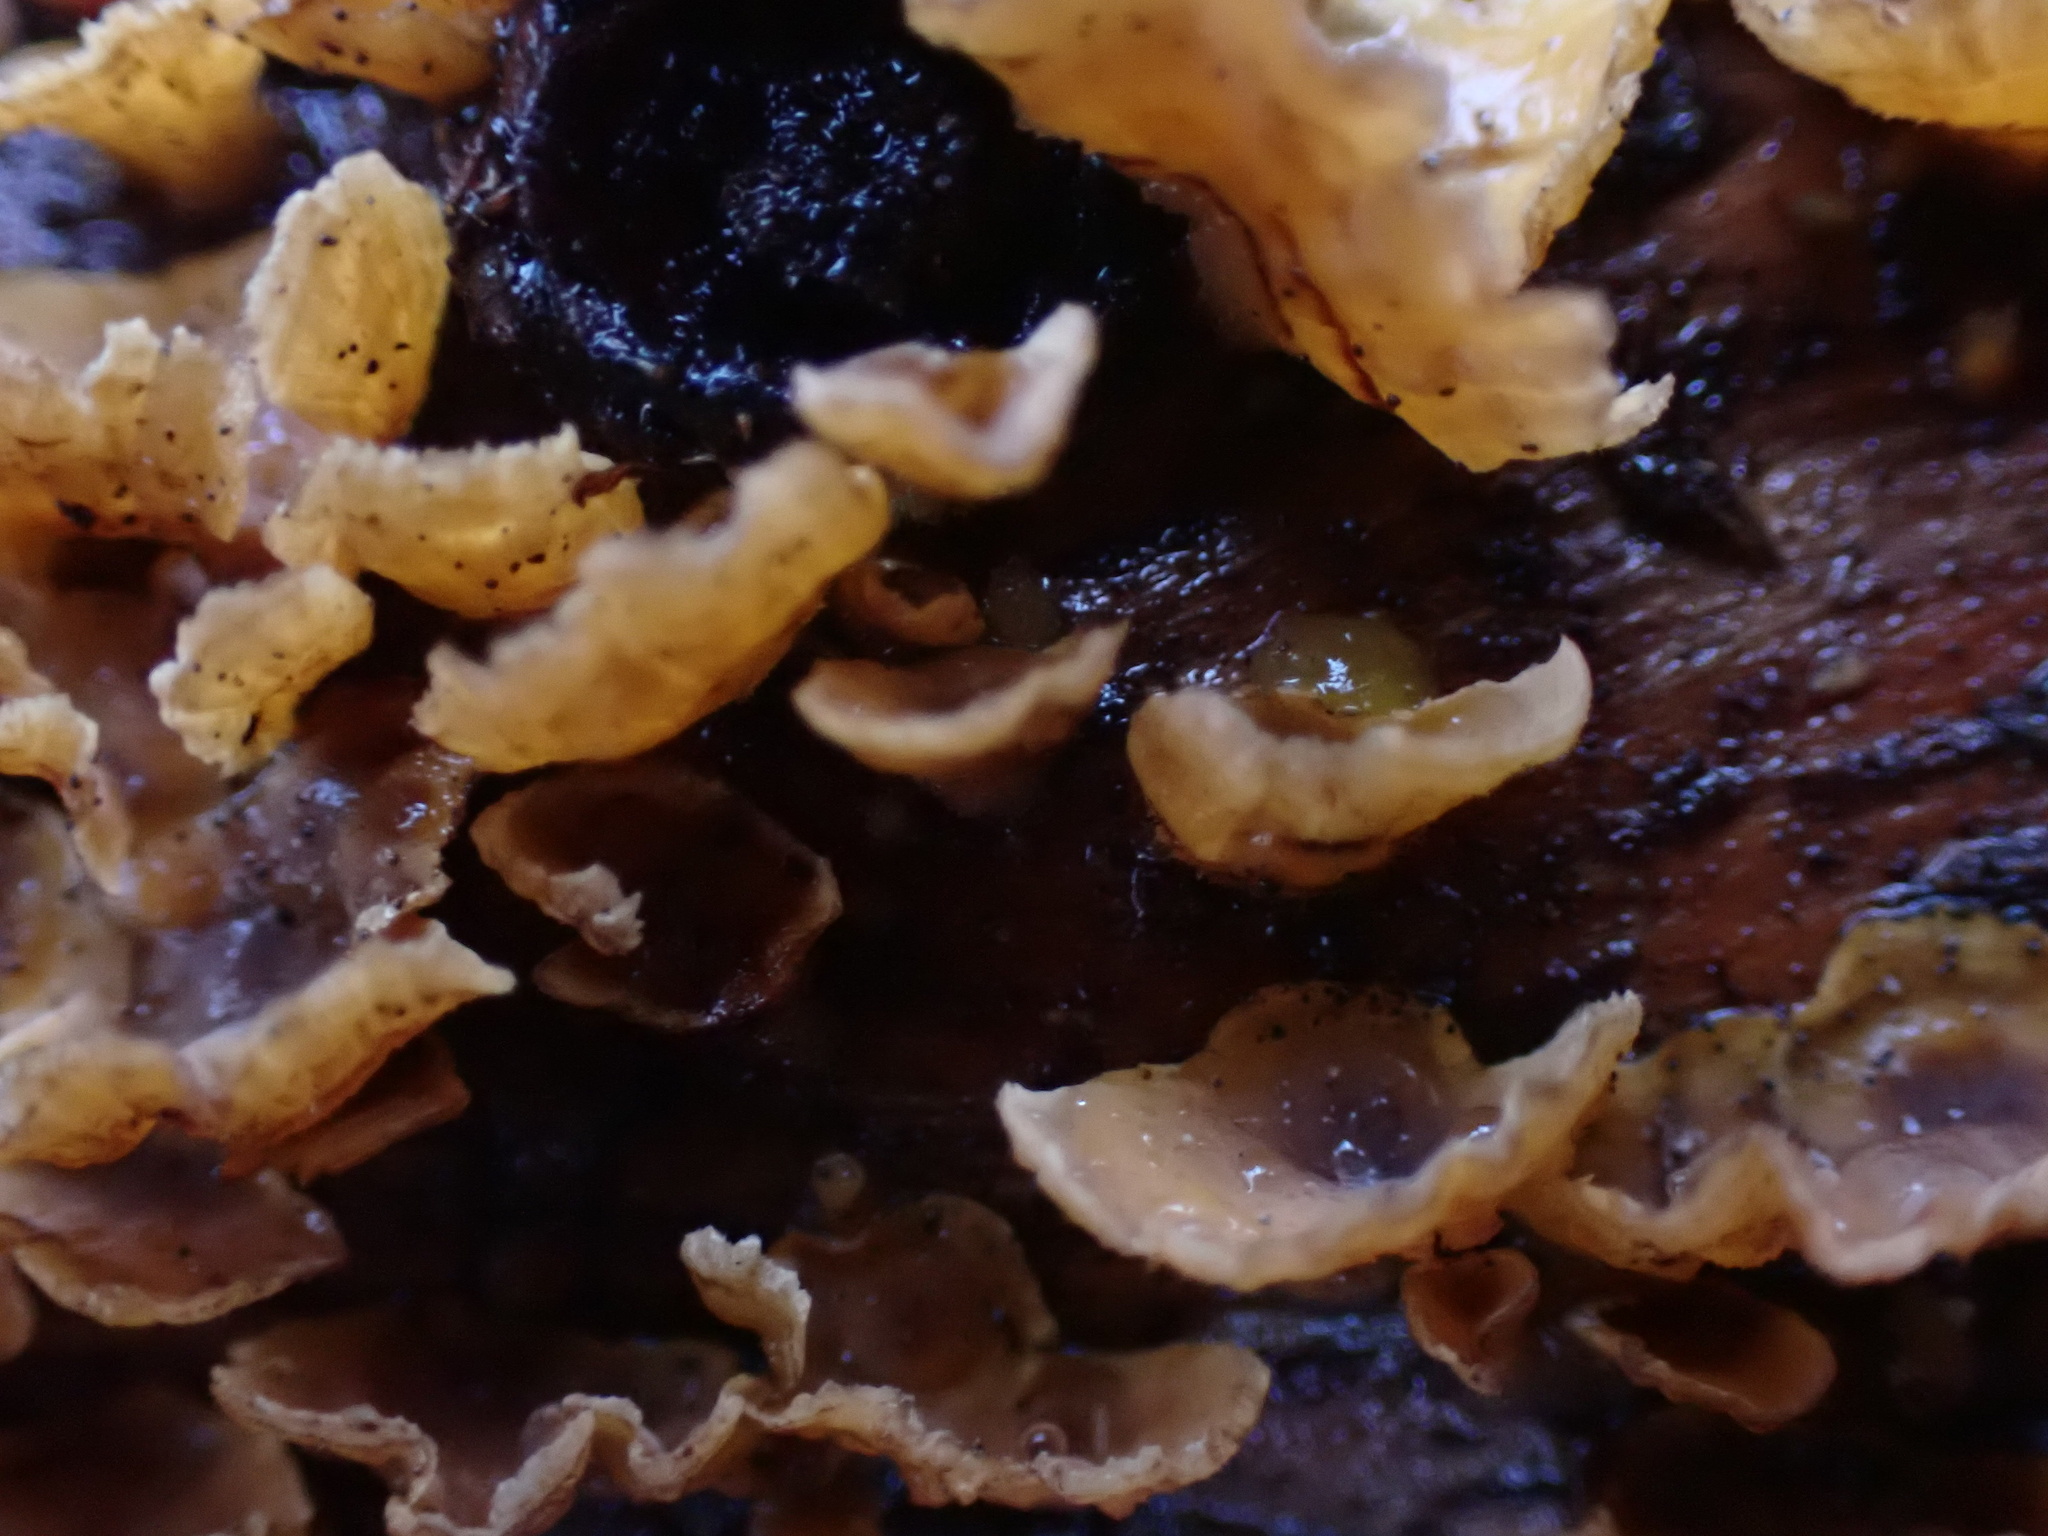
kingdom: Fungi
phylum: Basidiomycota
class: Agaricomycetes
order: Russulales
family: Stereaceae
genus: Stereum
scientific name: Stereum complicatum
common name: Crowded parchment
